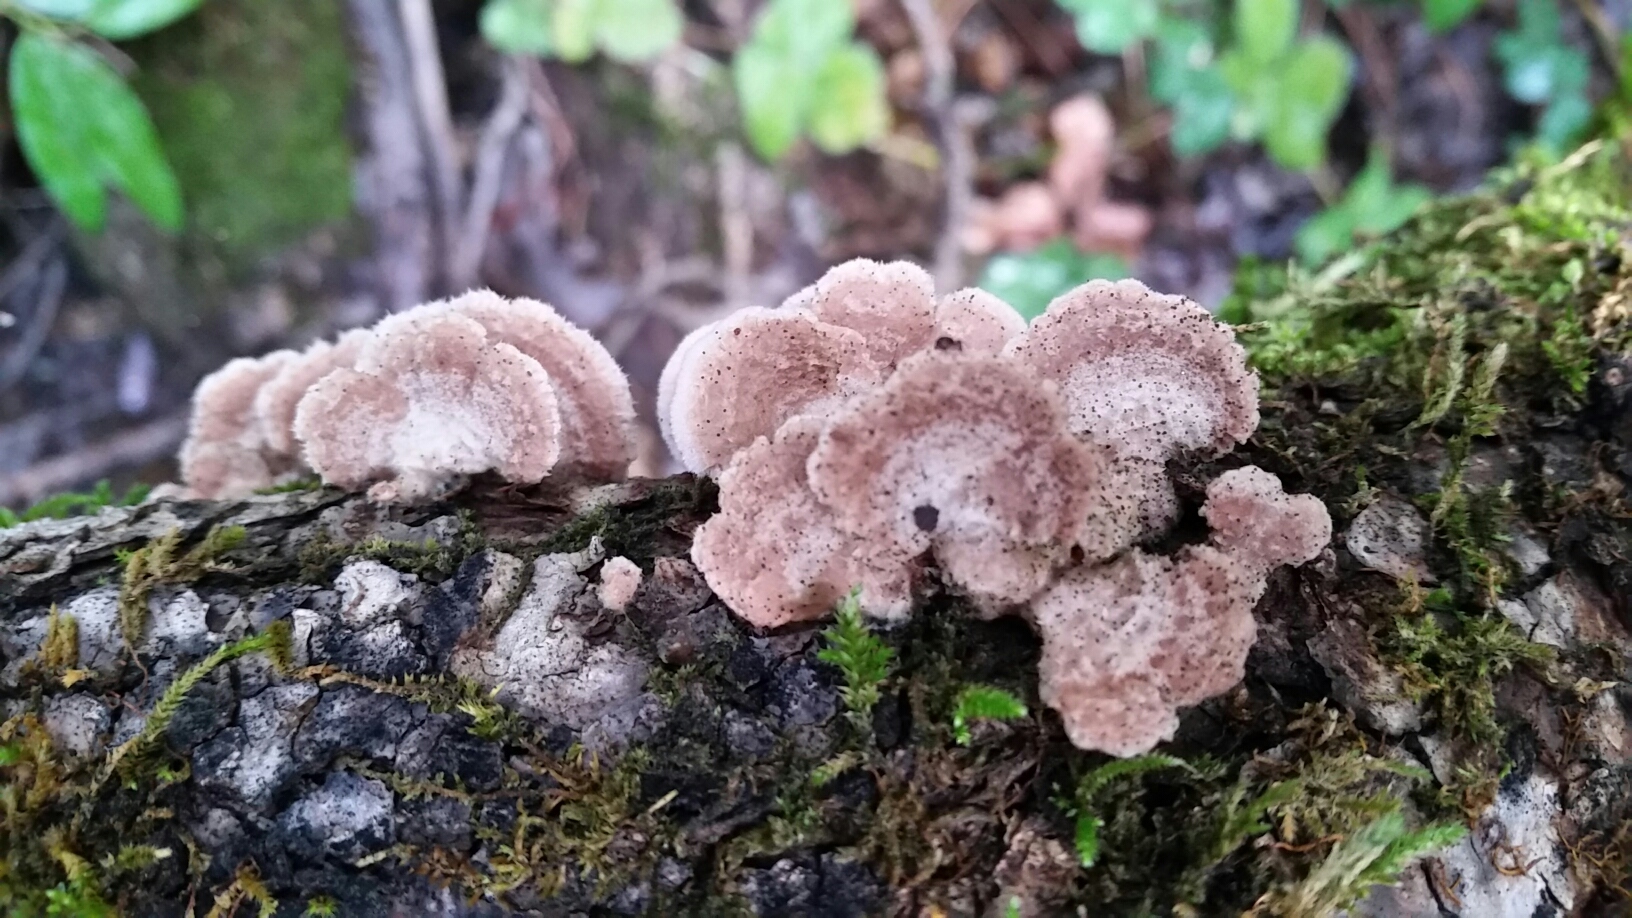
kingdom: Fungi
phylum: Basidiomycota
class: Agaricomycetes
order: Agaricales
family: Schizophyllaceae
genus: Schizophyllum
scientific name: Schizophyllum commune
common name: Common porecrust
